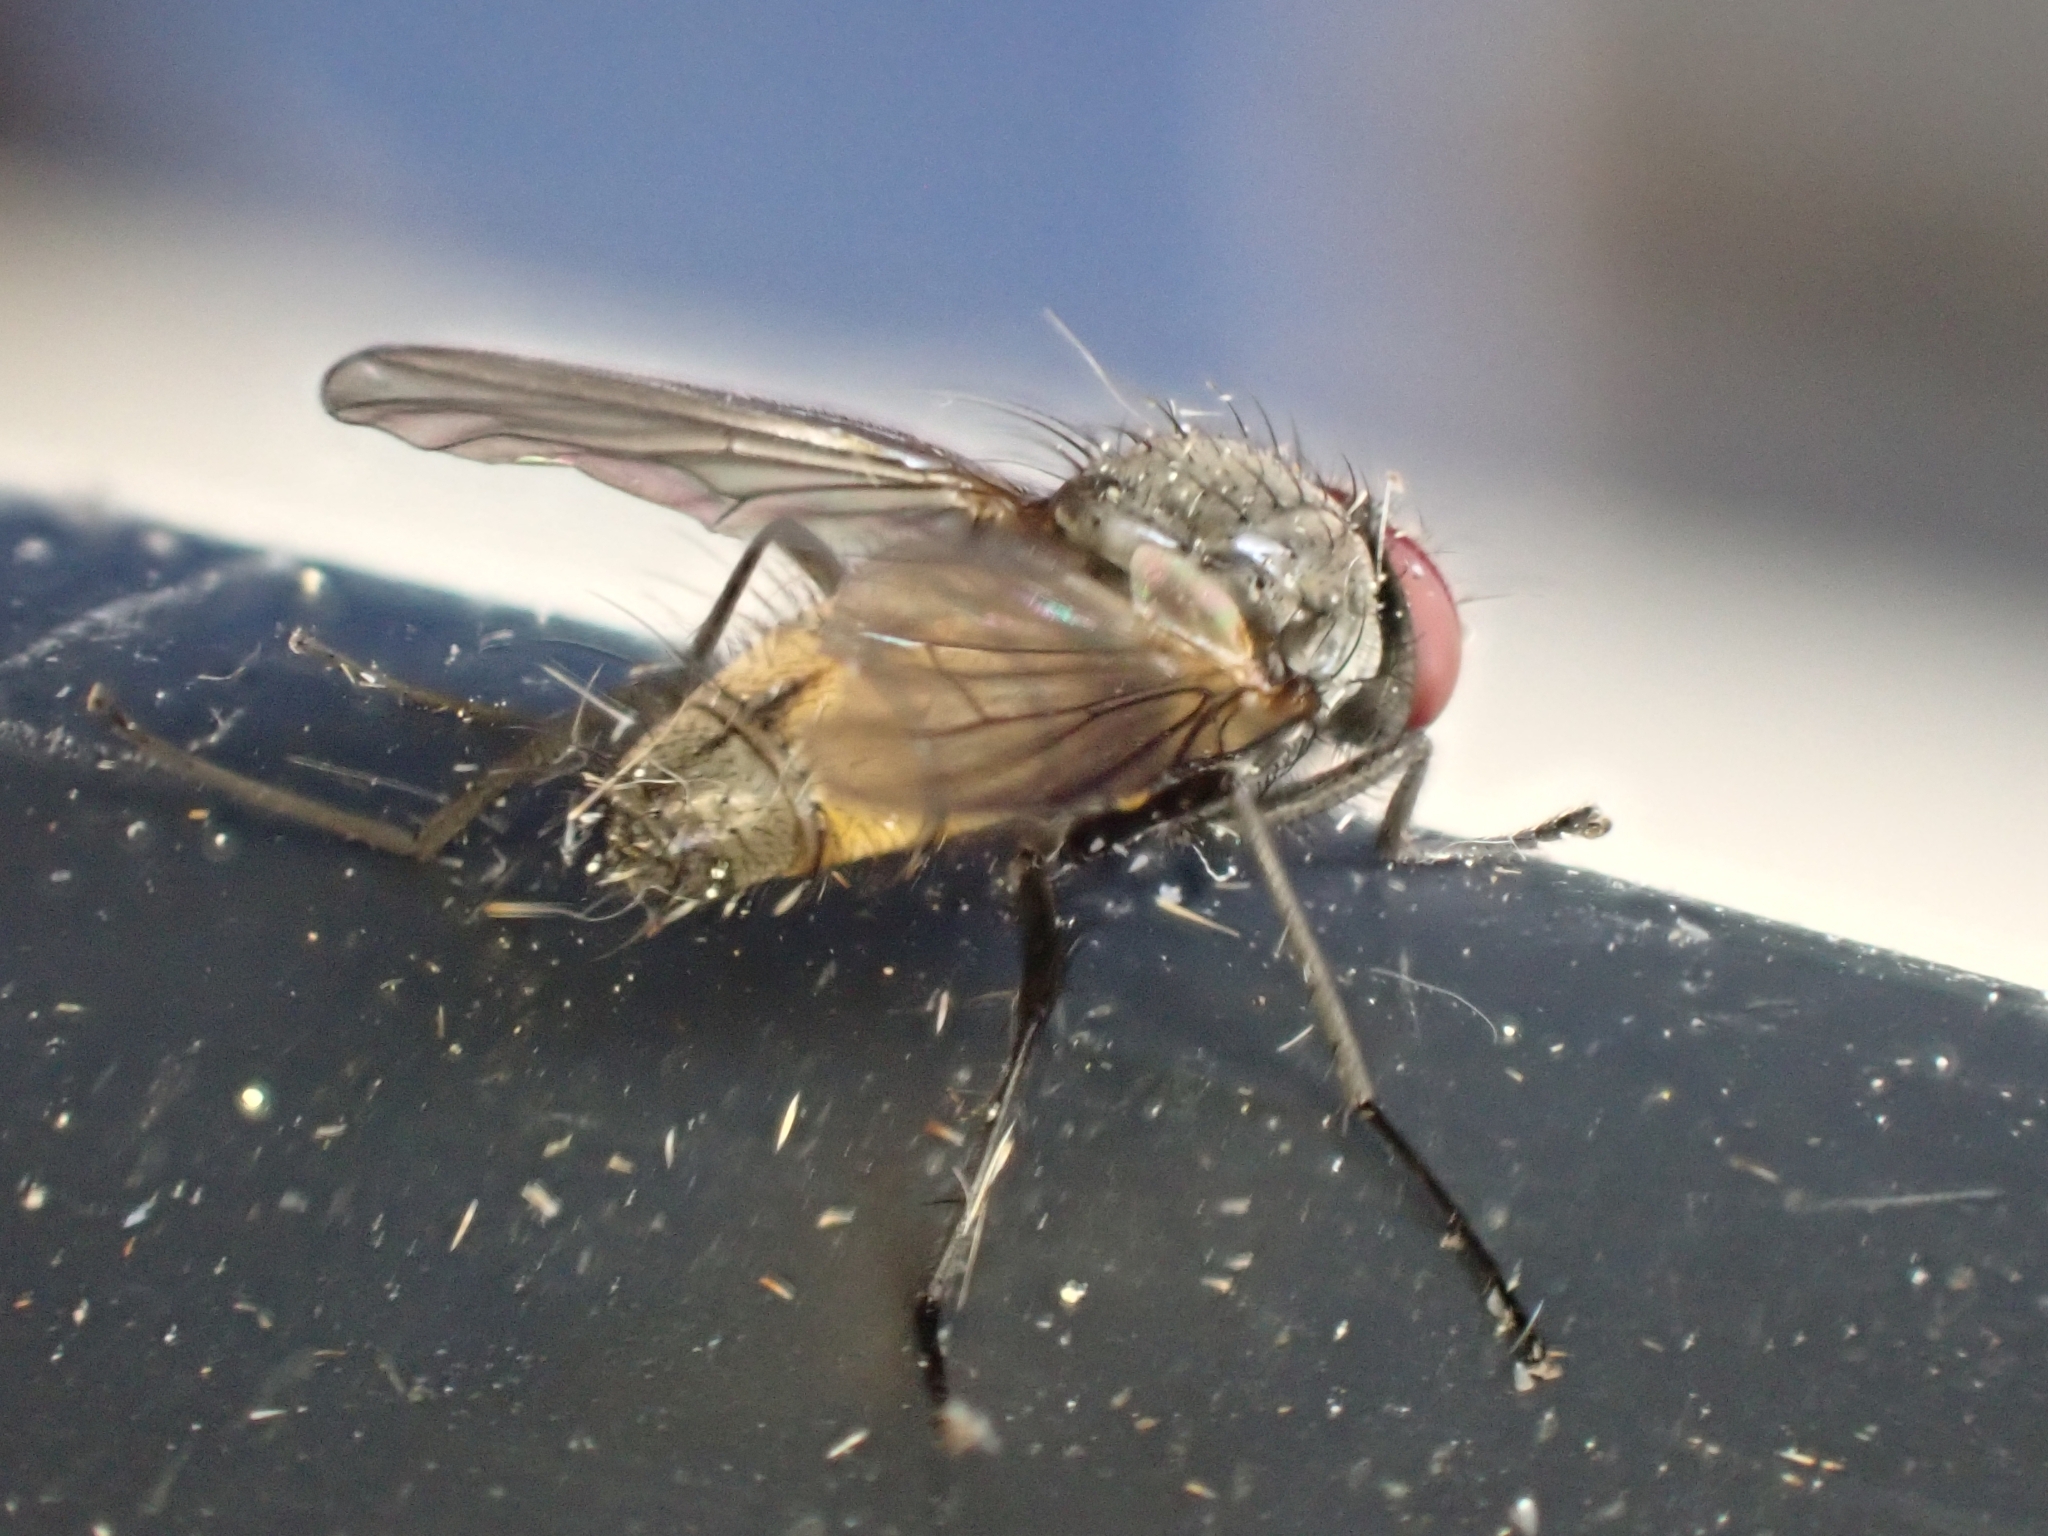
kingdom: Animalia
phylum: Arthropoda
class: Insecta
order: Diptera
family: Muscidae
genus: Thricops
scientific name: Thricops semicinereus
